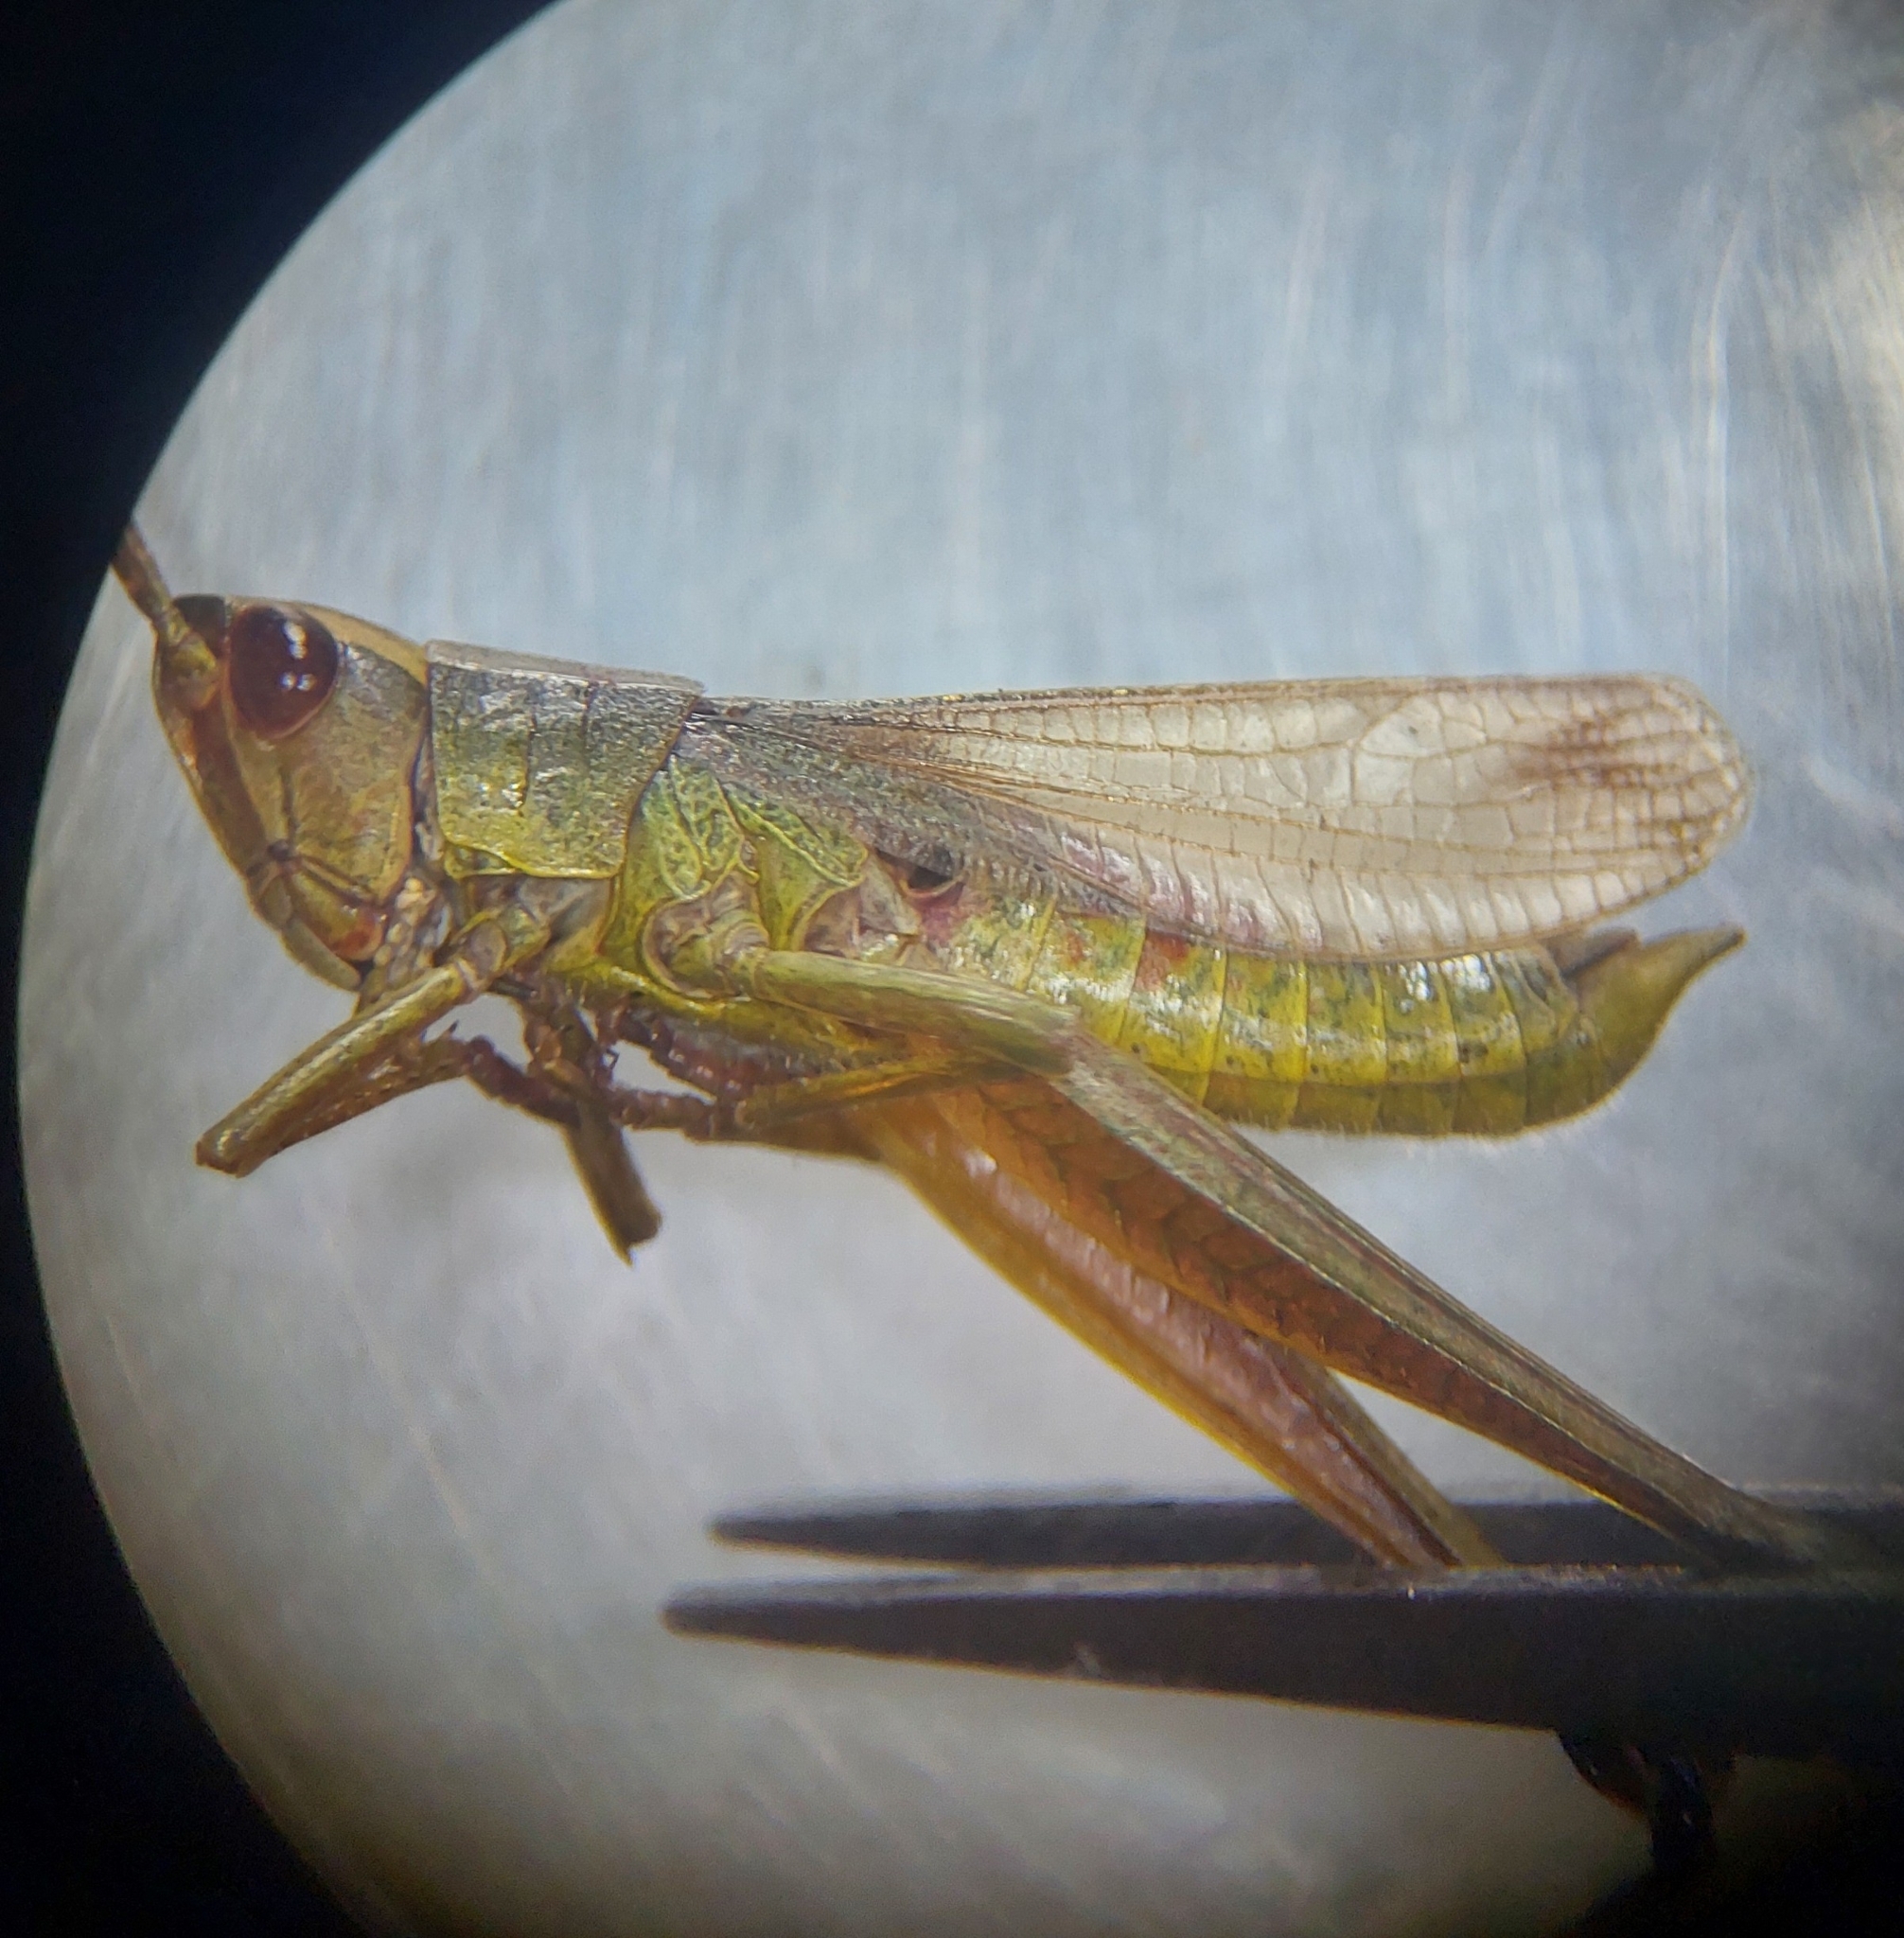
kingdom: Animalia
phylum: Arthropoda
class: Insecta
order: Orthoptera
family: Acrididae
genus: Chrysochraon
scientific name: Chrysochraon dispar
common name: Large gold grasshopper
